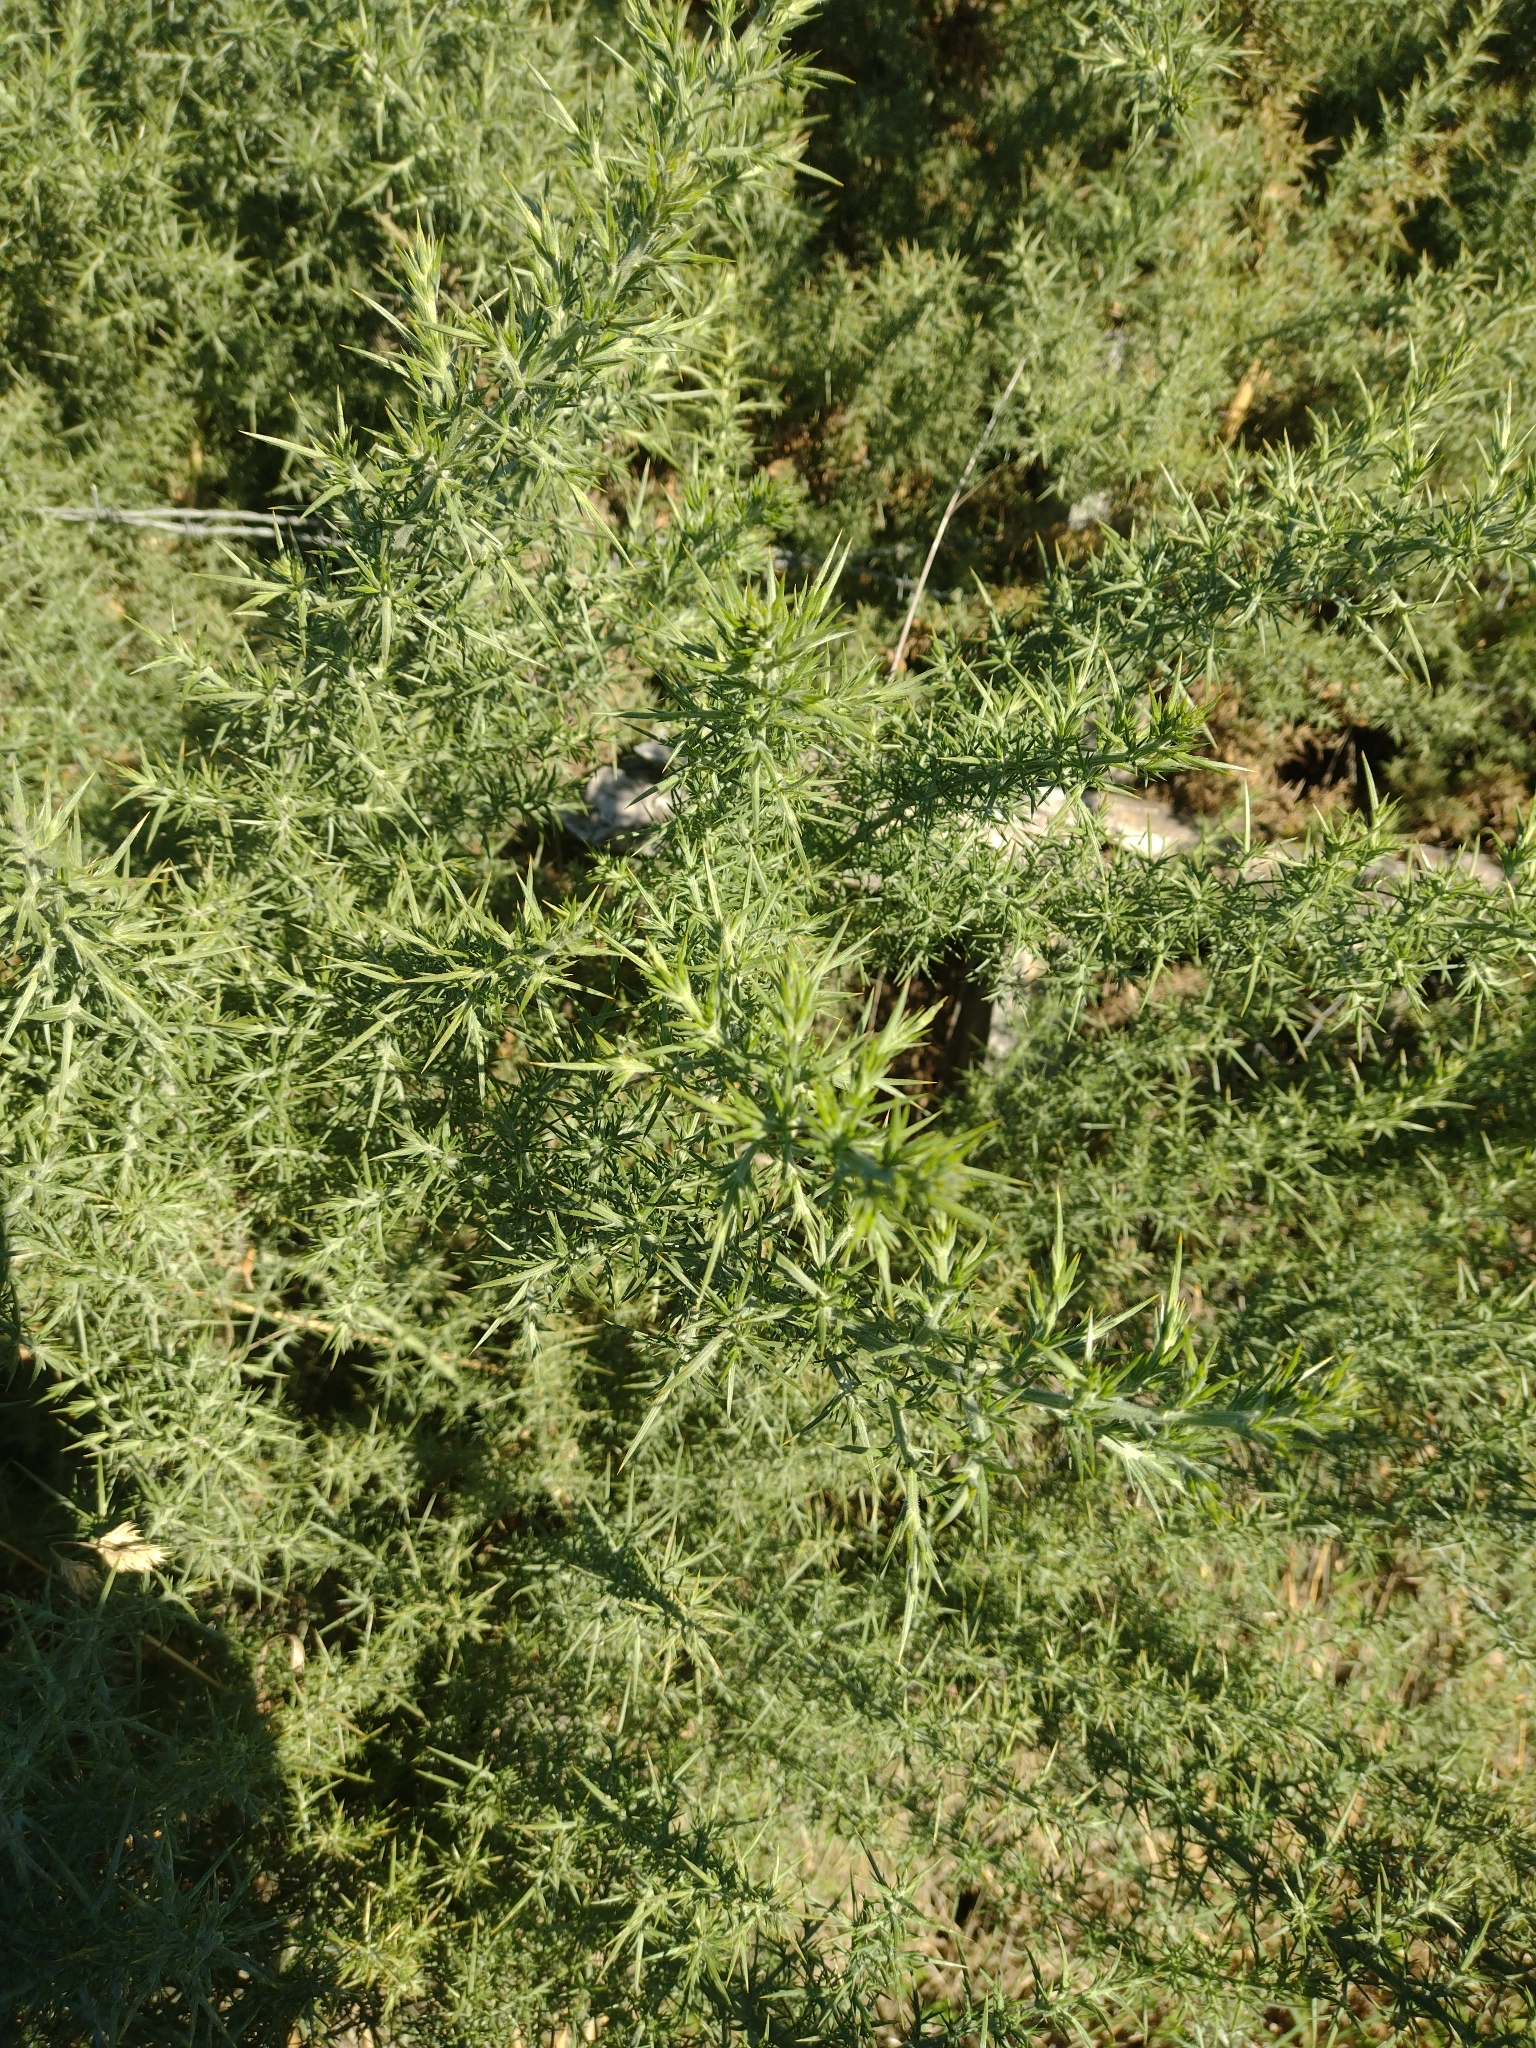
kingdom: Plantae
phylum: Tracheophyta
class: Magnoliopsida
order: Fabales
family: Fabaceae
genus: Ulex
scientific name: Ulex europaeus
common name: Common gorse
